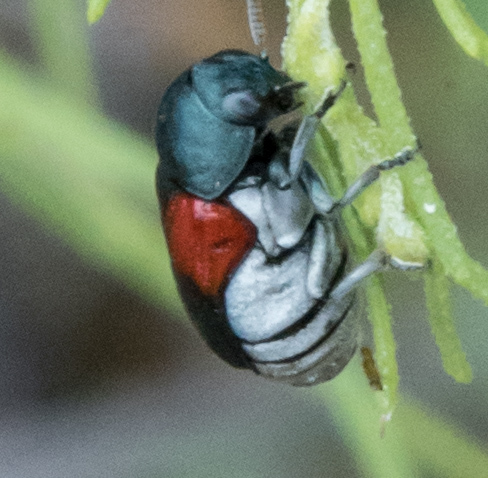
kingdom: Animalia
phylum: Arthropoda
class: Insecta
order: Coleoptera
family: Chrysomelidae
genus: Saxinis
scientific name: Saxinis sonorensis
